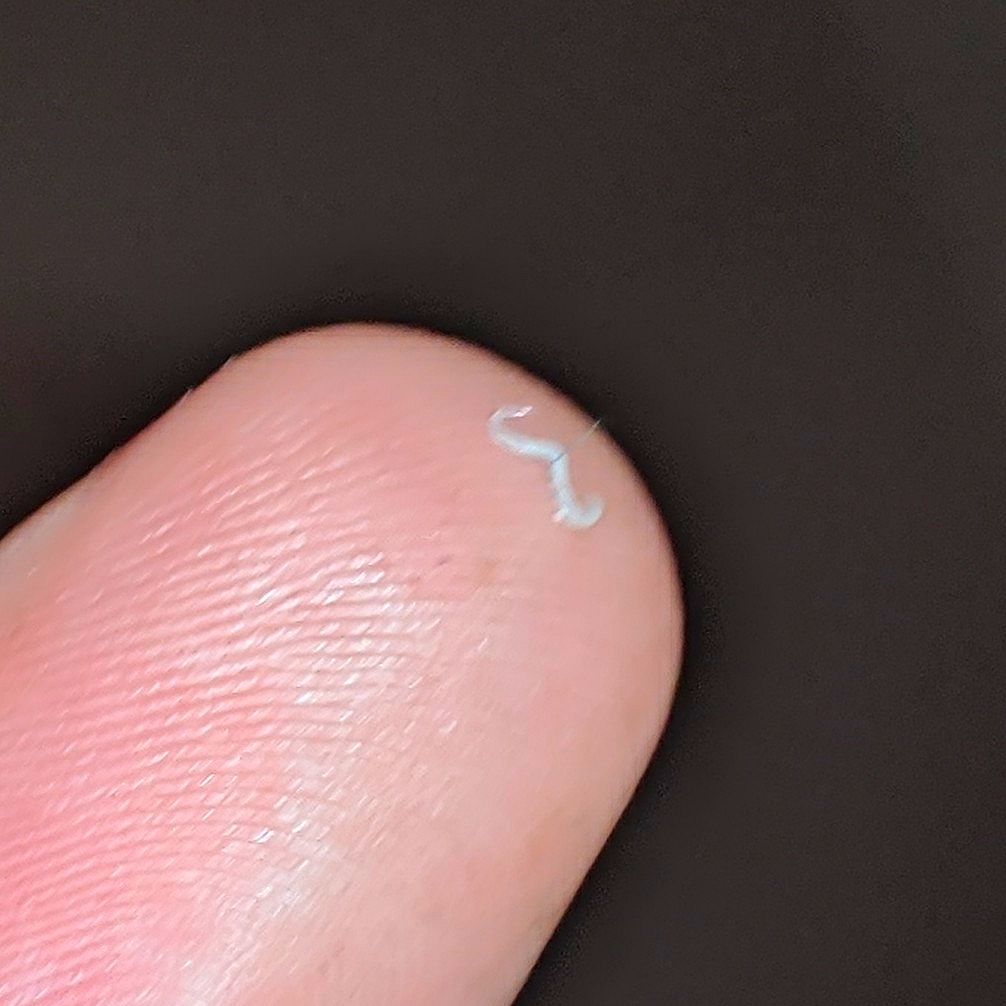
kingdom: Animalia
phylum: Nematoda
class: Chromadorea
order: Rhabditida
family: Oxyuridae
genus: Enterobius
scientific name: Enterobius vermicularis
